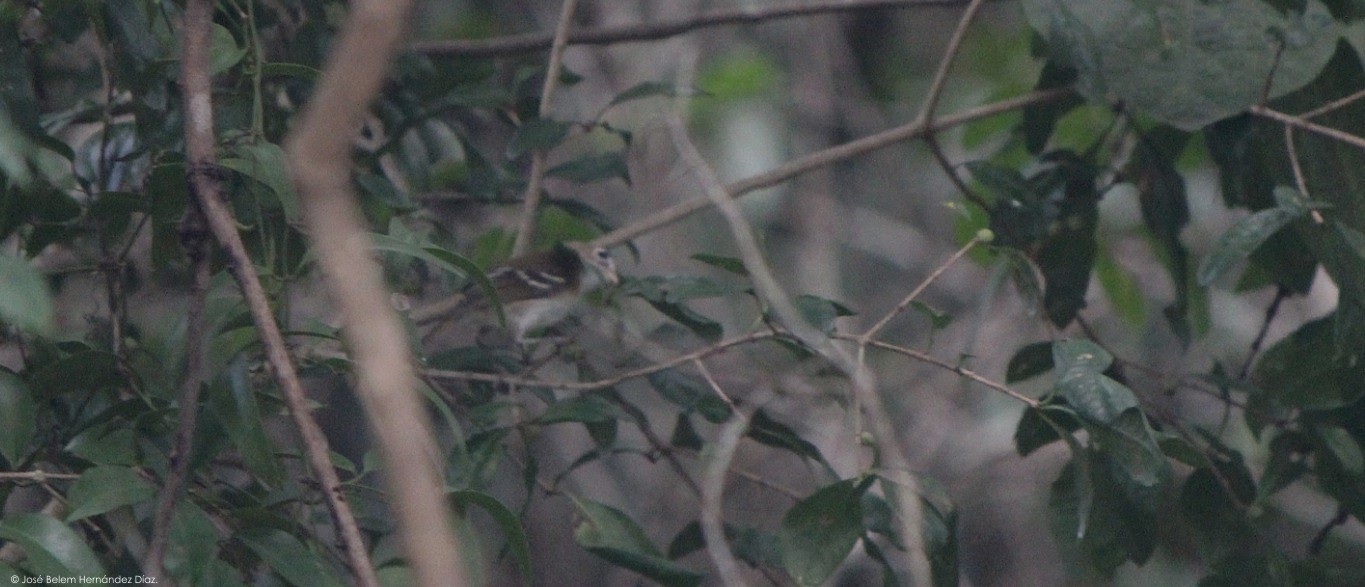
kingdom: Animalia
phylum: Chordata
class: Aves
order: Passeriformes
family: Vireonidae
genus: Vireo
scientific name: Vireo bairdi
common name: Cozumel vireo
